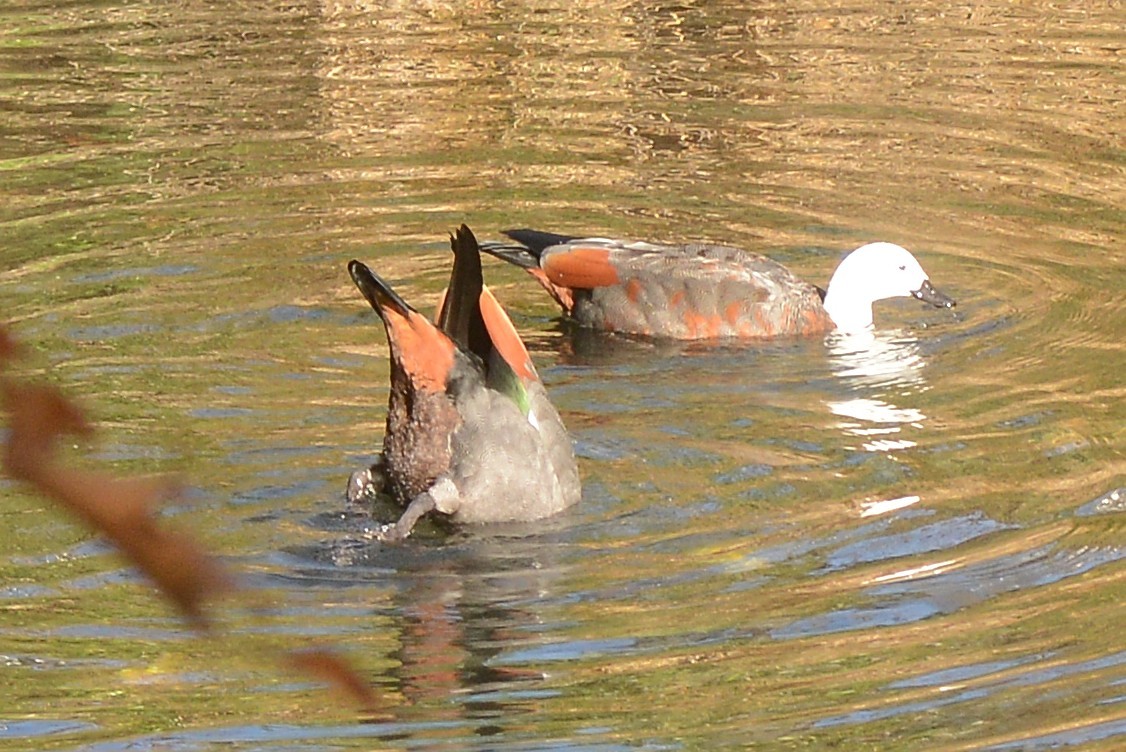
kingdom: Animalia
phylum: Chordata
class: Aves
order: Anseriformes
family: Anatidae
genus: Tadorna
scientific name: Tadorna variegata
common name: Paradise shelduck
